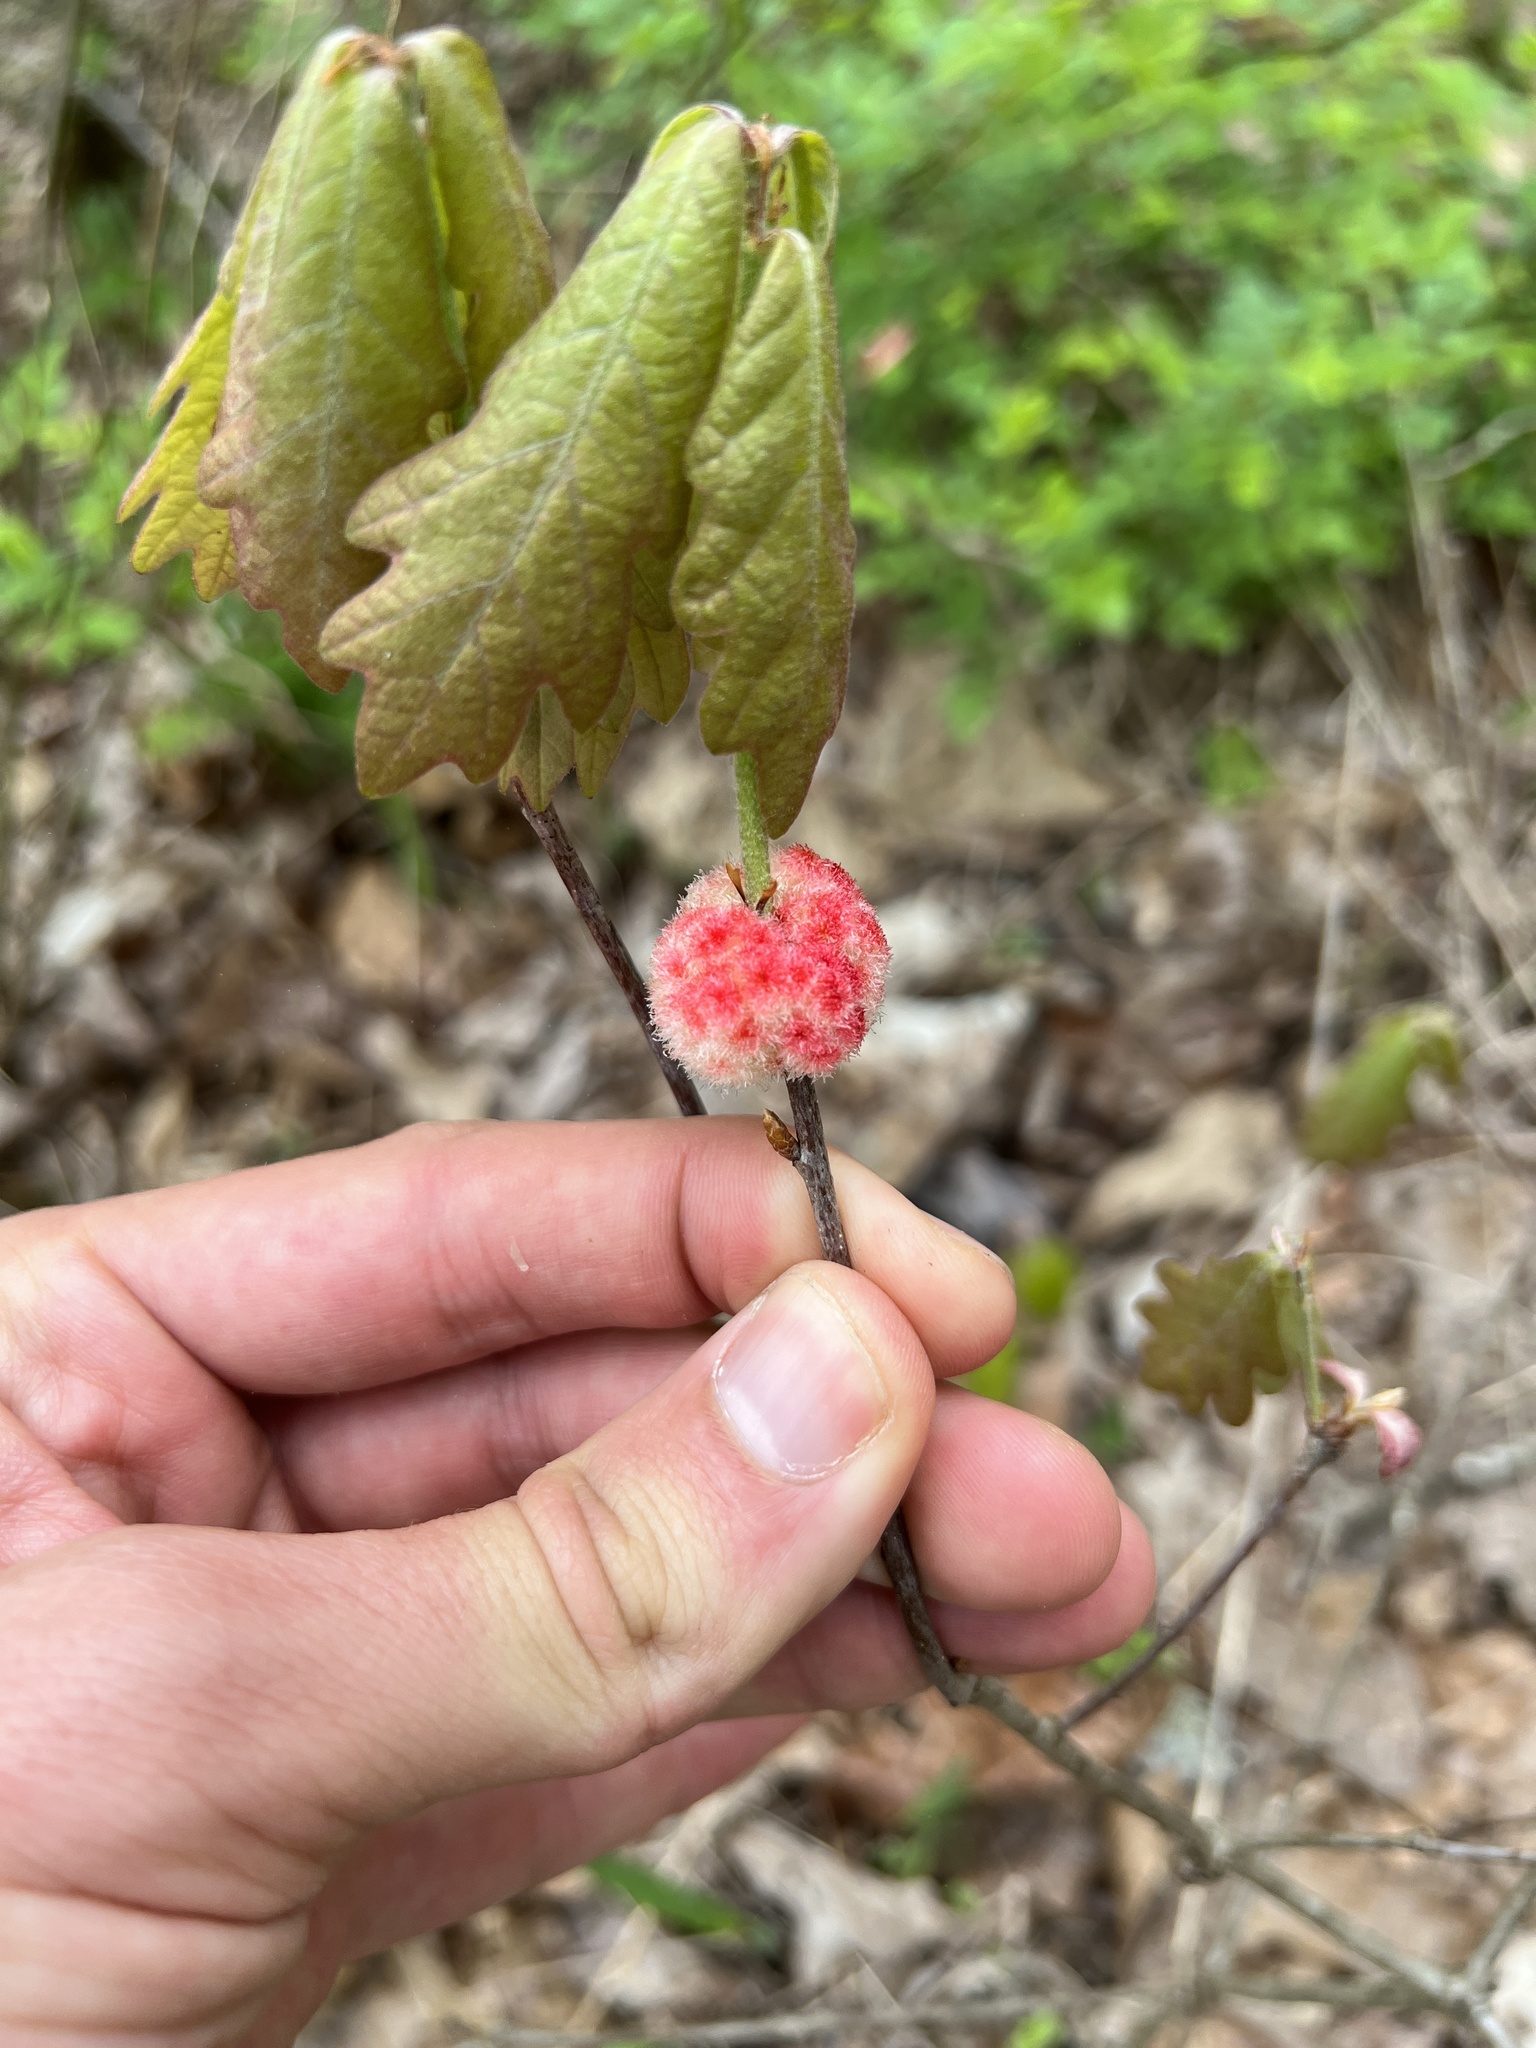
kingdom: Animalia
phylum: Arthropoda
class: Insecta
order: Hymenoptera
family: Cynipidae
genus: Callirhytis
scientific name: Callirhytis
